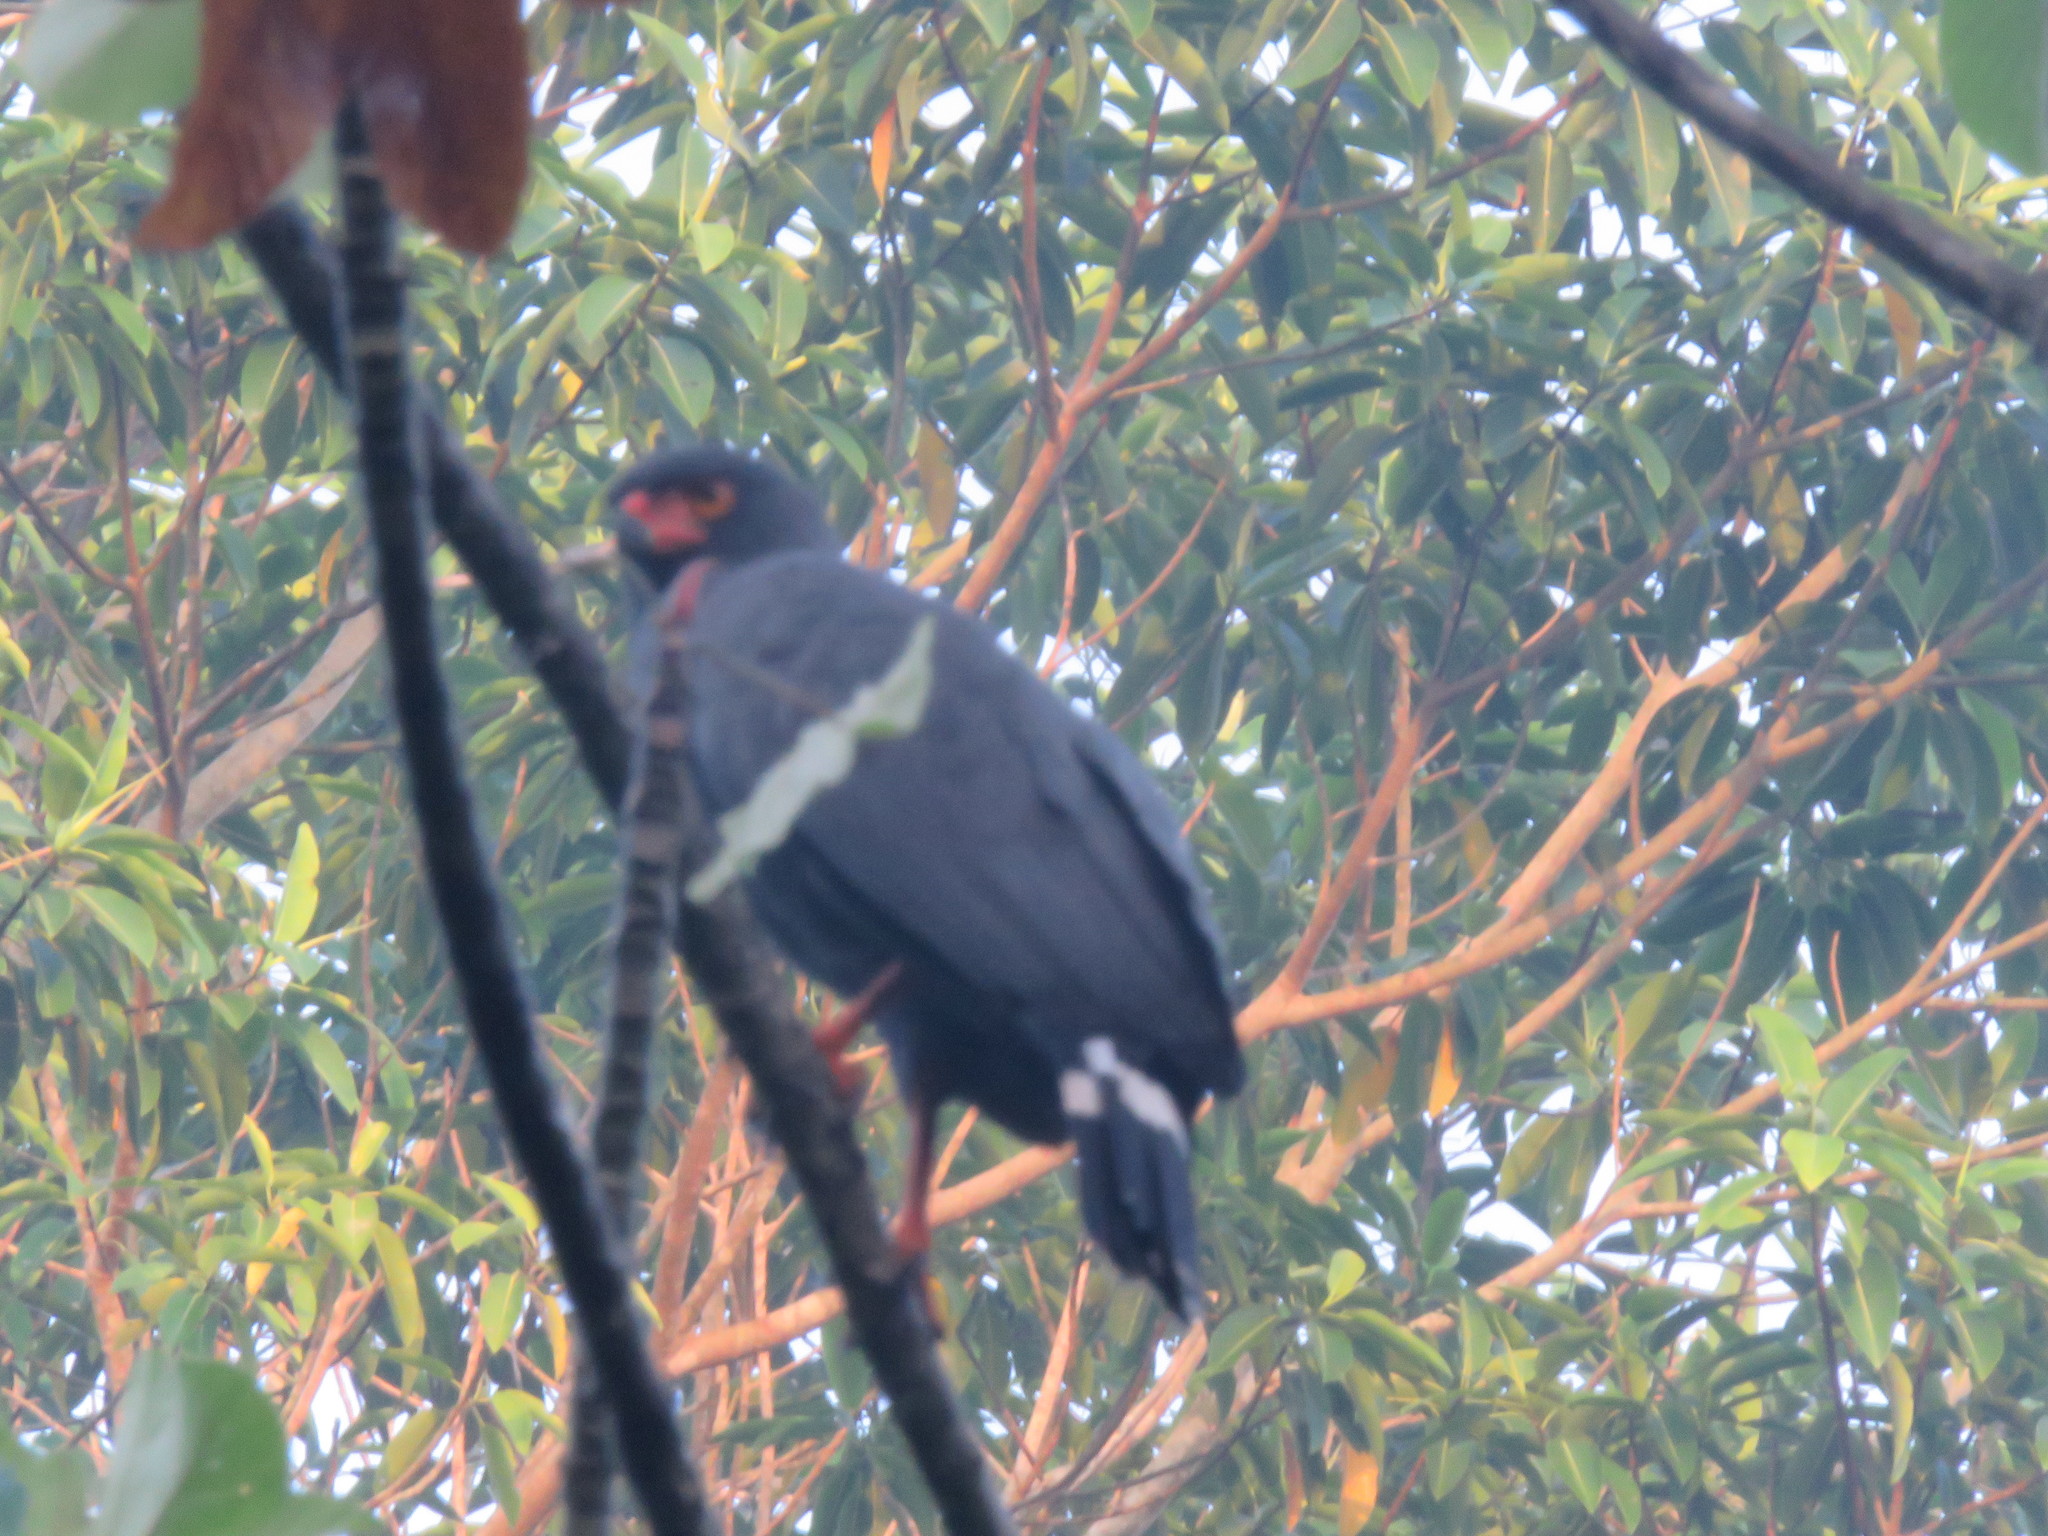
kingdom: Animalia
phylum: Chordata
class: Aves
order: Accipitriformes
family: Accipitridae
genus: Leucopternis
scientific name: Leucopternis schistaceus
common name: Slate-colored hawk
